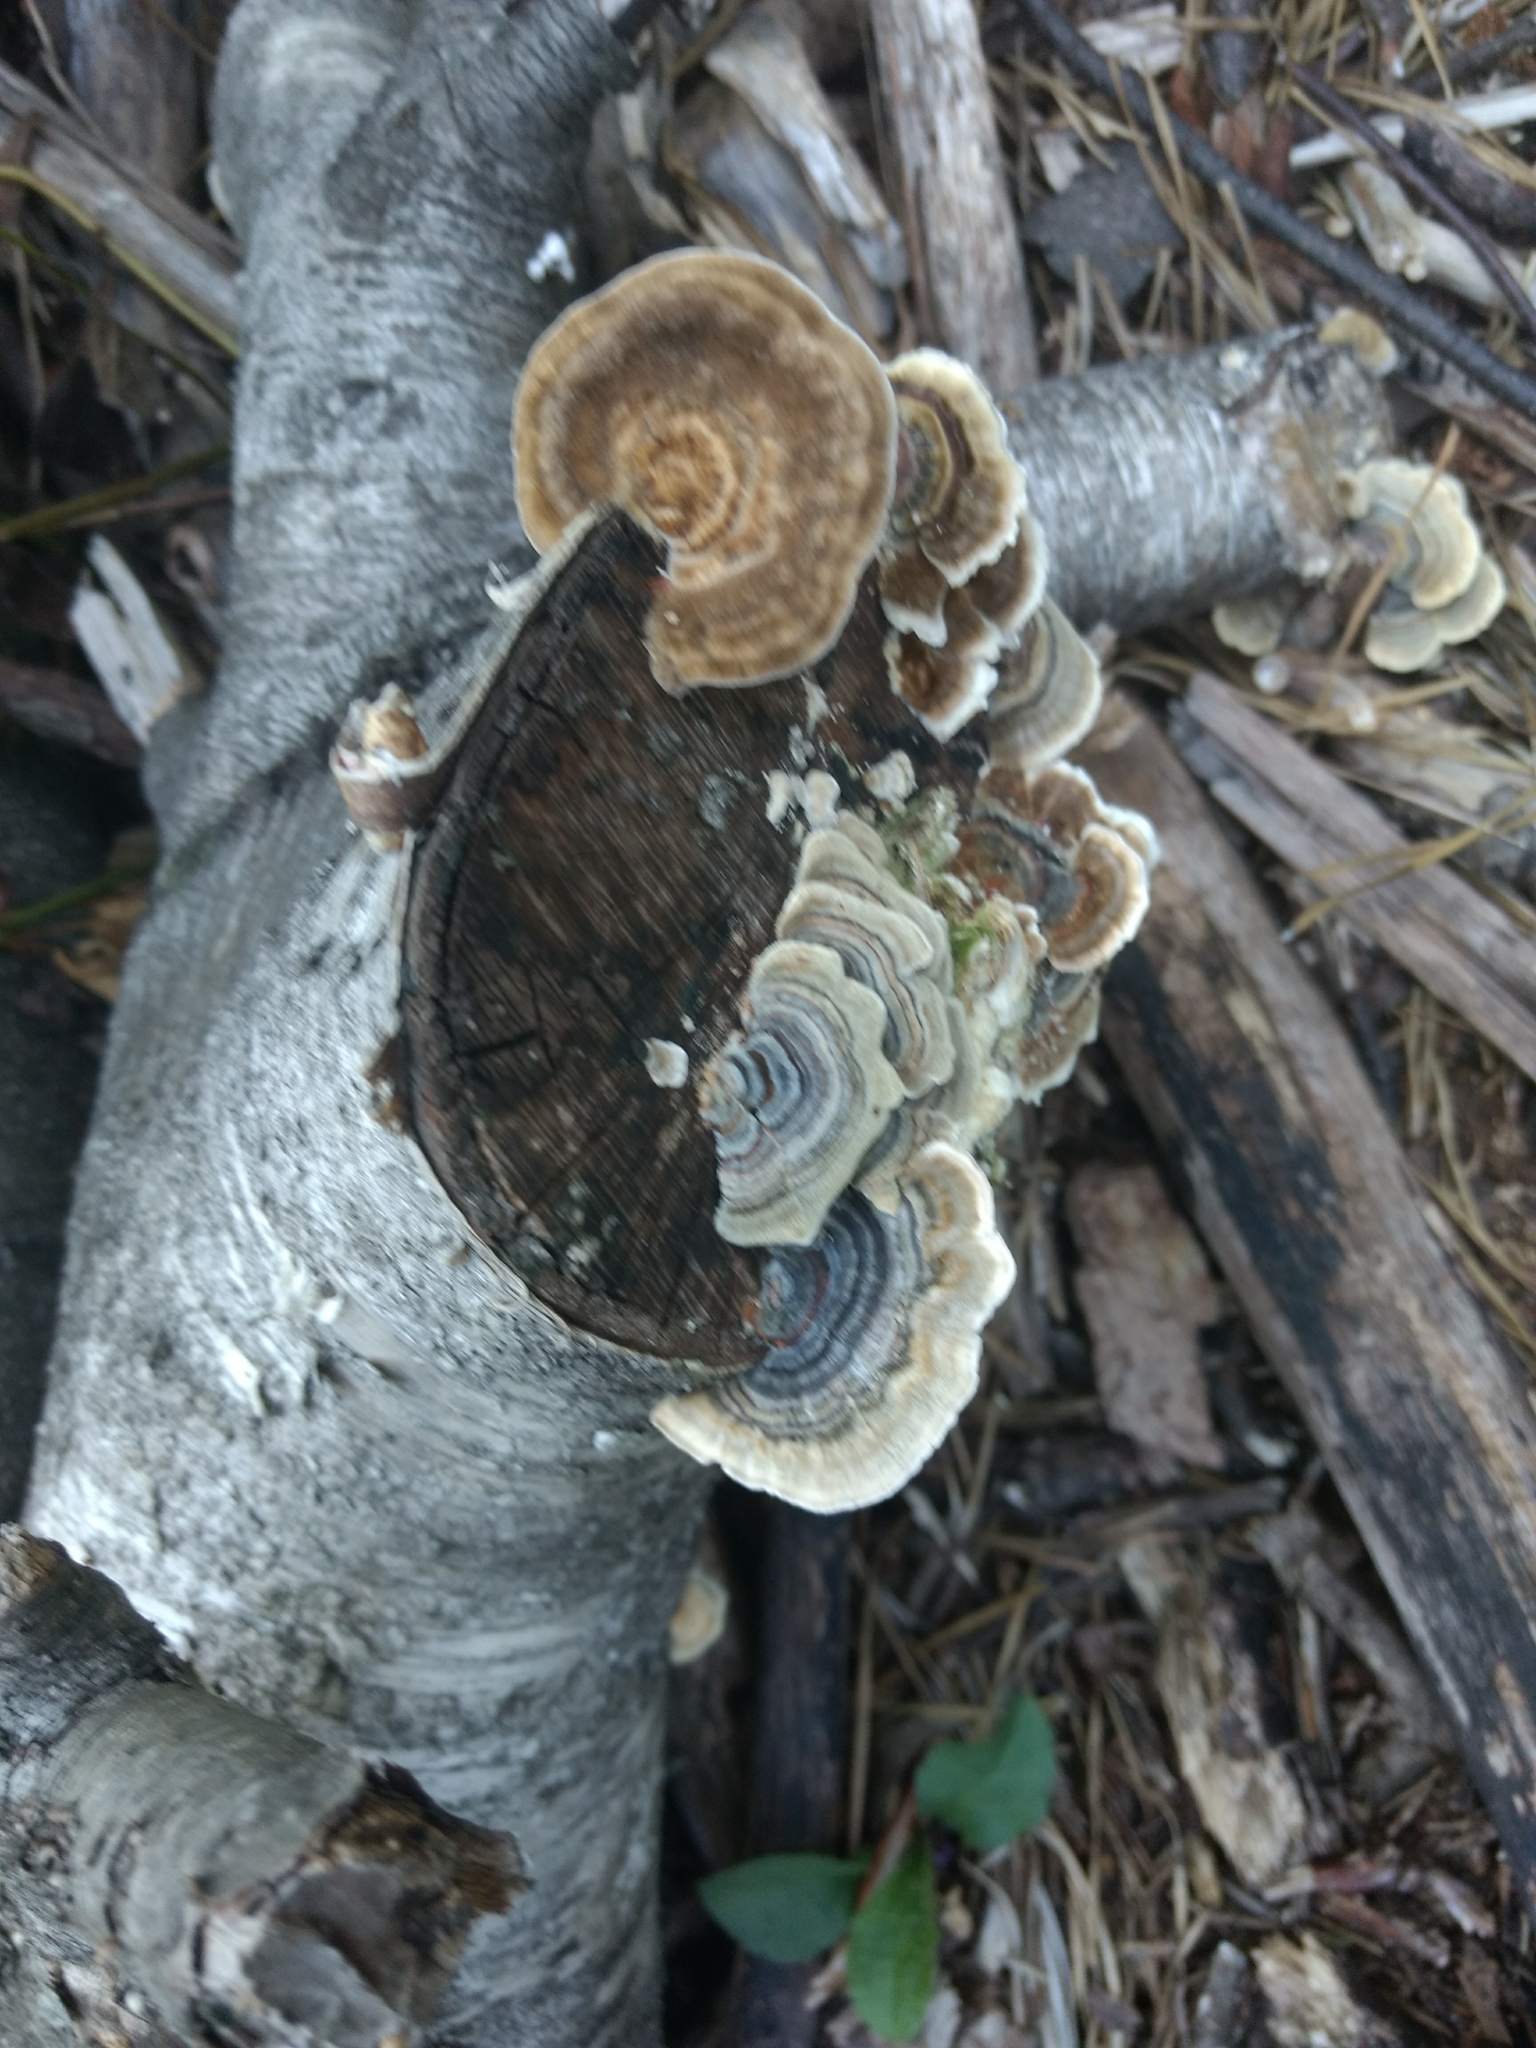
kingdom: Fungi
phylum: Basidiomycota
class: Agaricomycetes
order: Polyporales
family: Polyporaceae
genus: Trametes
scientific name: Trametes versicolor
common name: Turkeytail
